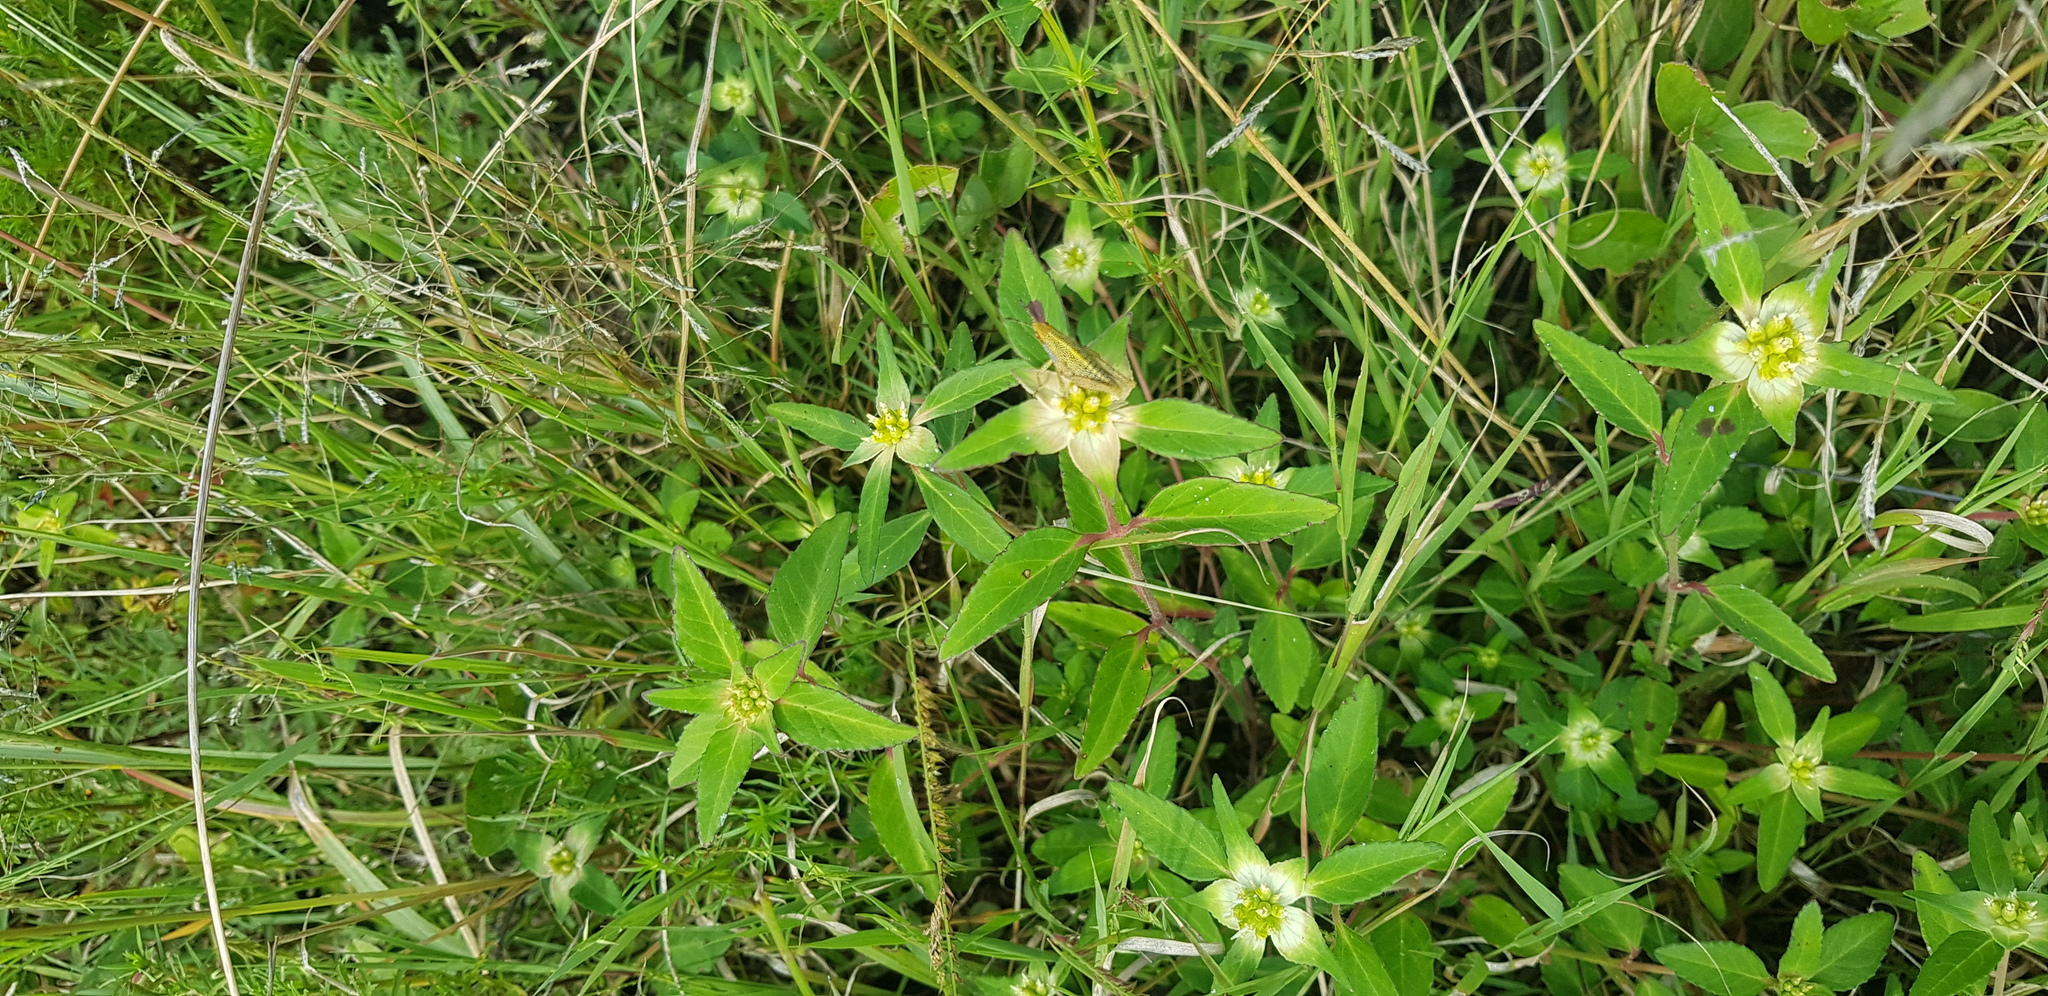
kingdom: Plantae
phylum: Tracheophyta
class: Magnoliopsida
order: Malpighiales
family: Euphorbiaceae
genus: Euphorbia
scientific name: Euphorbia schiedeana
